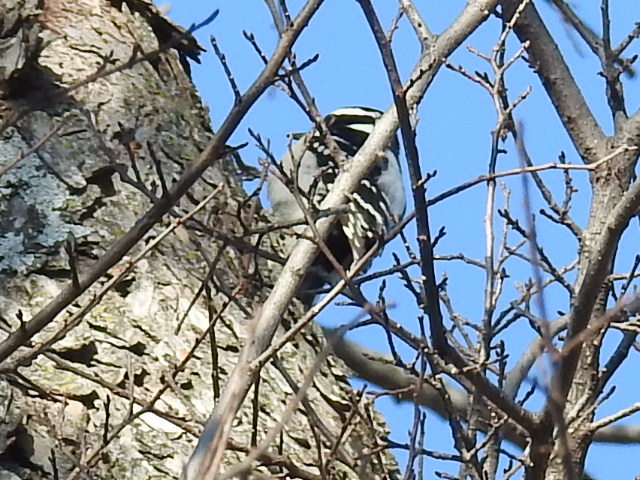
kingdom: Animalia
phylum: Chordata
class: Aves
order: Piciformes
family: Picidae
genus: Dryobates
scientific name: Dryobates pubescens
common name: Downy woodpecker
